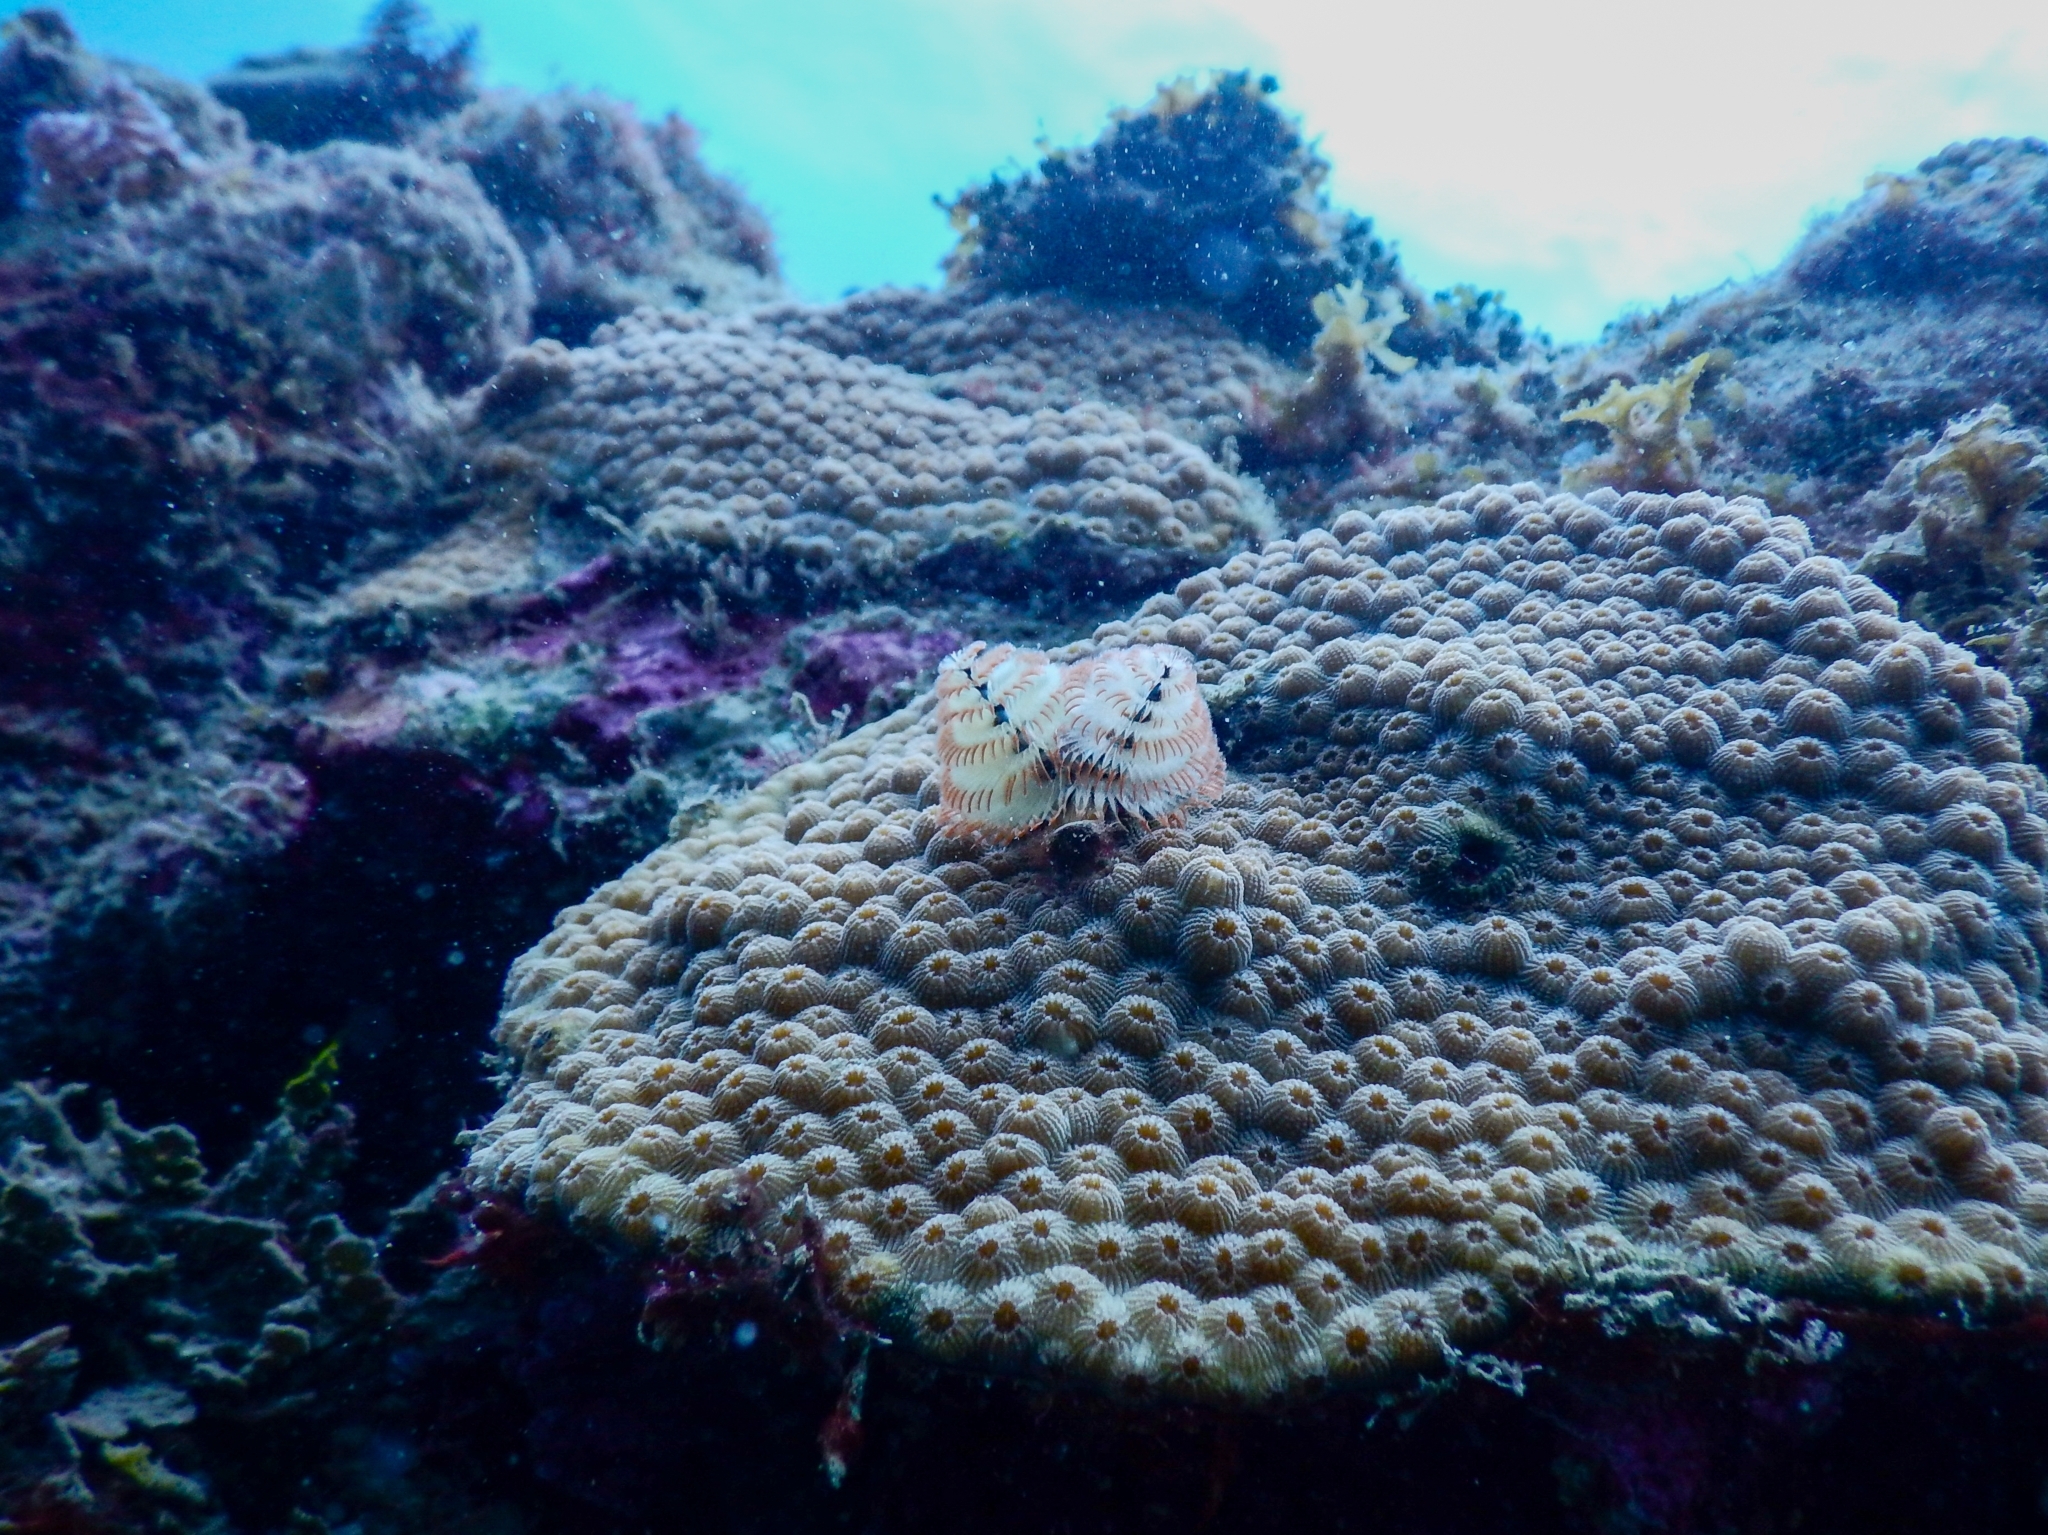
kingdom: Animalia
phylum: Annelida
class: Polychaeta
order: Sabellida
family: Serpulidae
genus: Spirobranchus
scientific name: Spirobranchus giganteus
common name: Christmas tree worm
